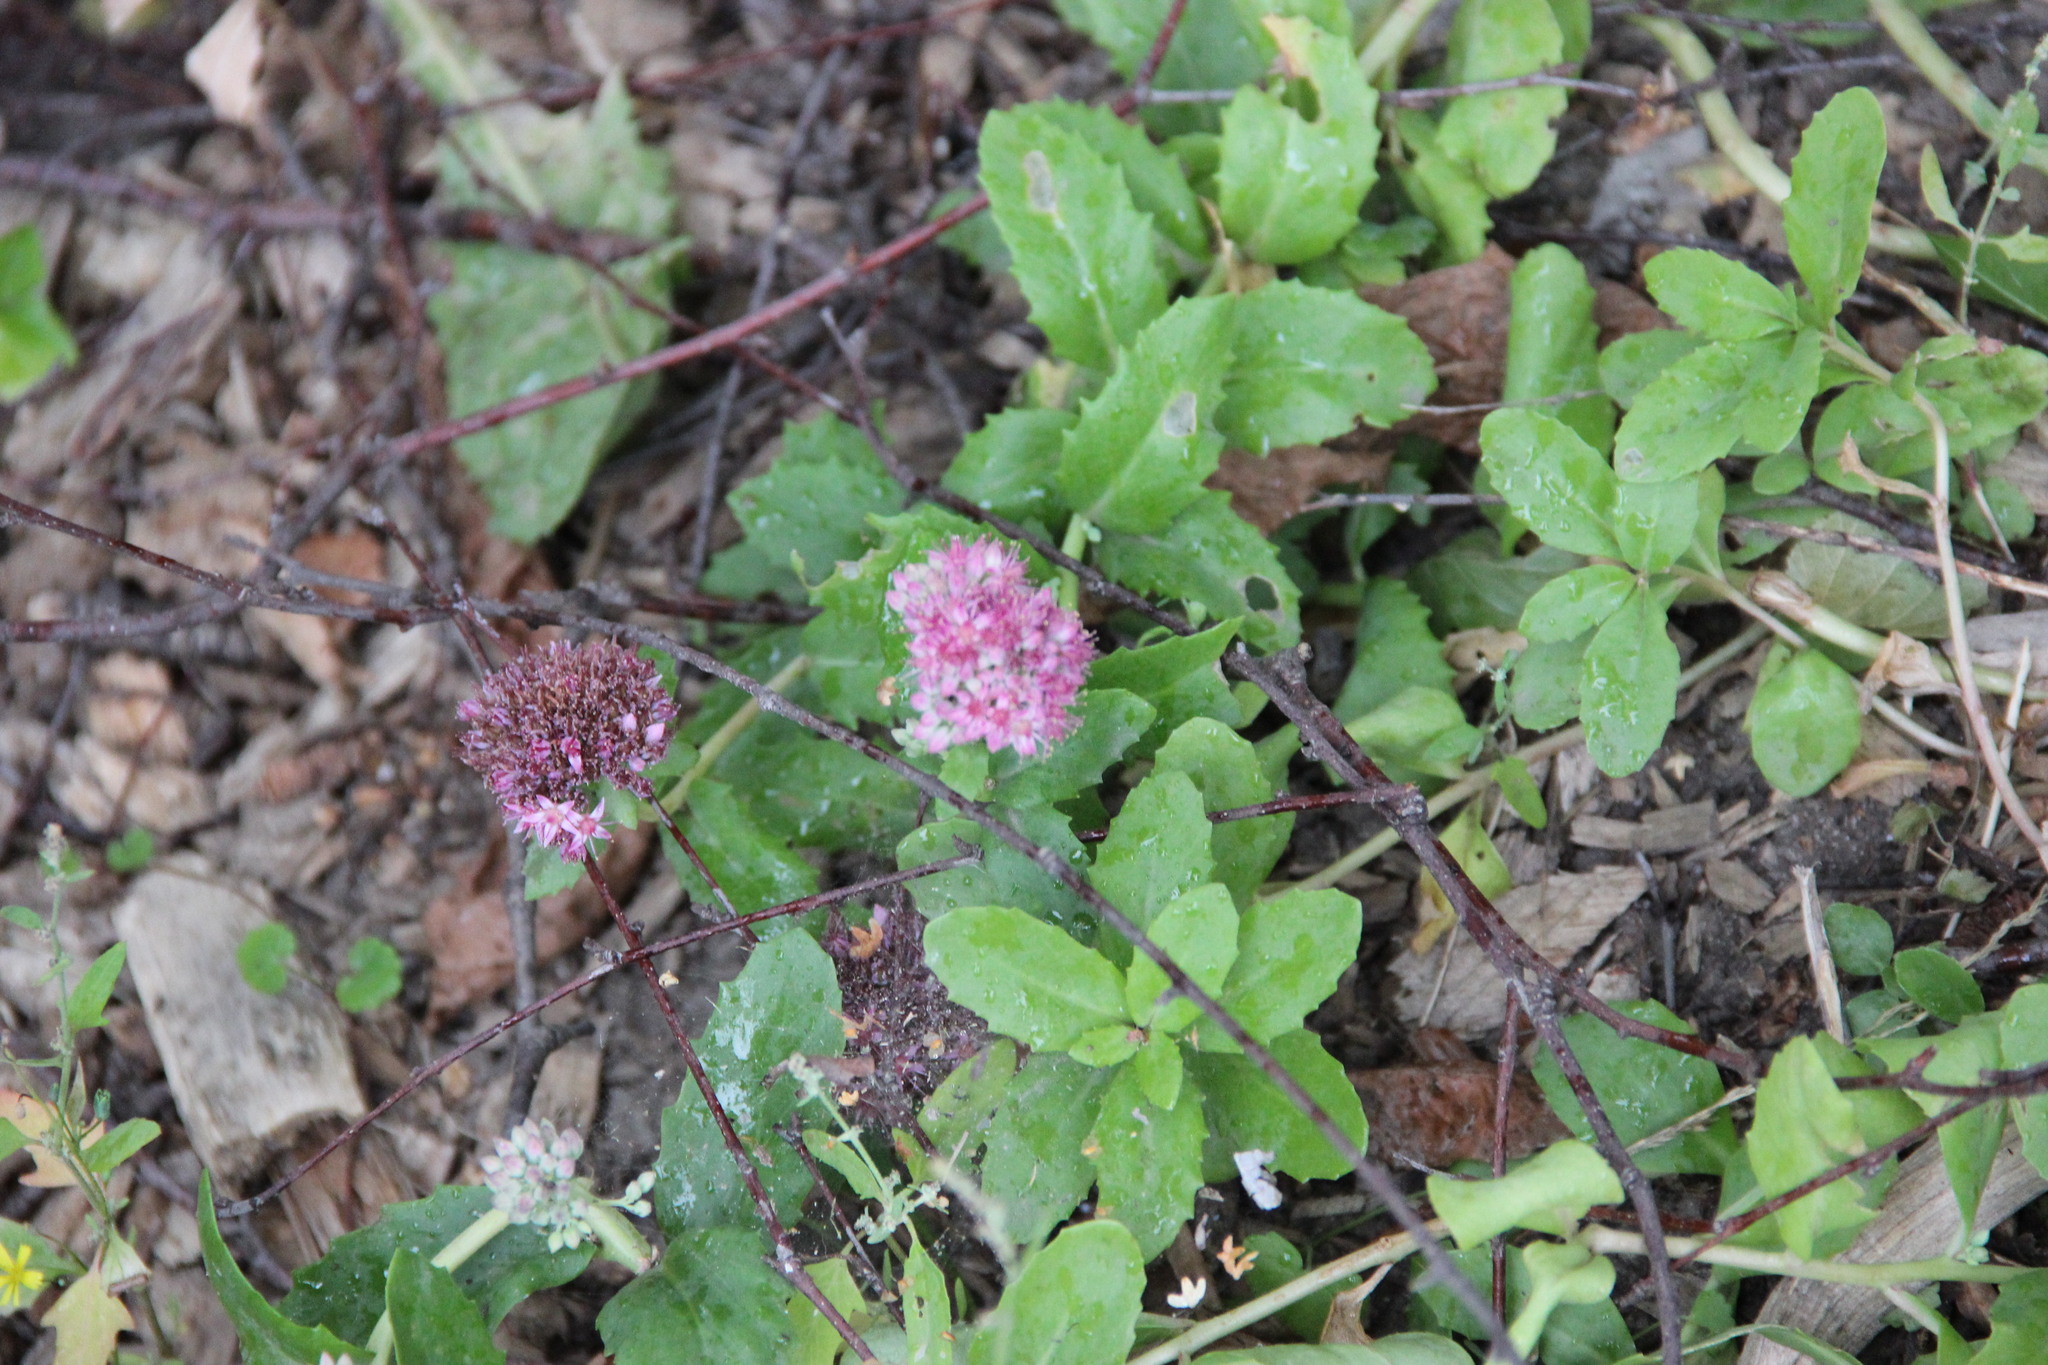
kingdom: Plantae
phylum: Tracheophyta
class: Magnoliopsida
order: Saxifragales
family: Crassulaceae
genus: Hylotelephium
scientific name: Hylotelephium telephium
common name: Live-forever
